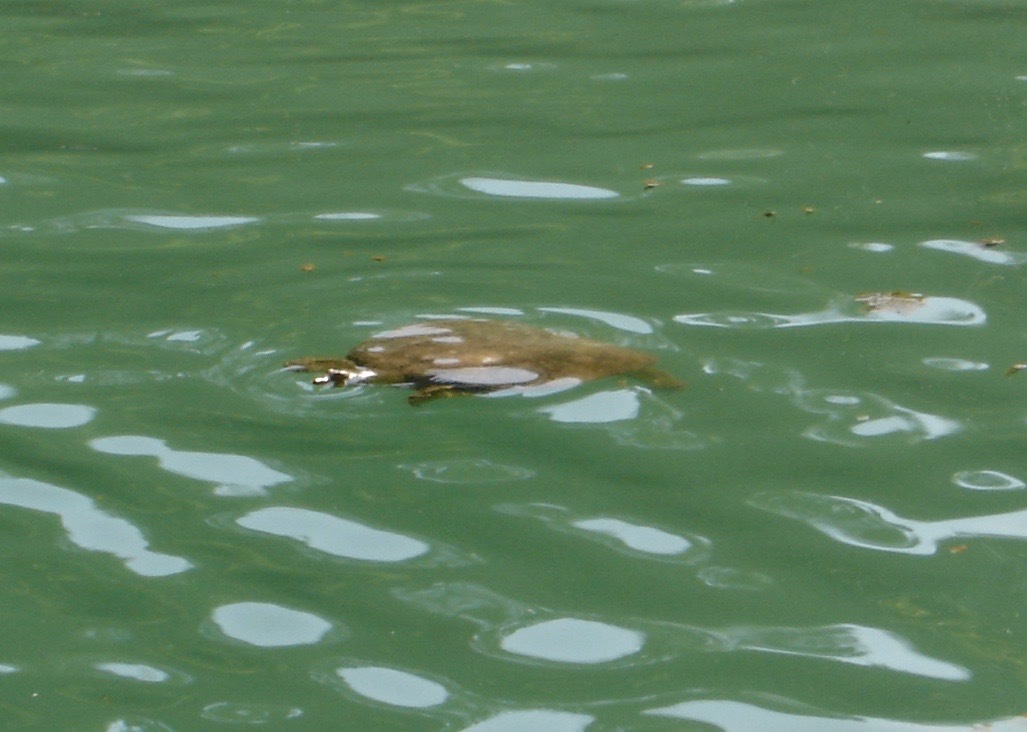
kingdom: Animalia
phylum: Chordata
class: Testudines
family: Trionychidae
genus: Apalone
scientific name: Apalone spinifera
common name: Spiny softshell turtle
